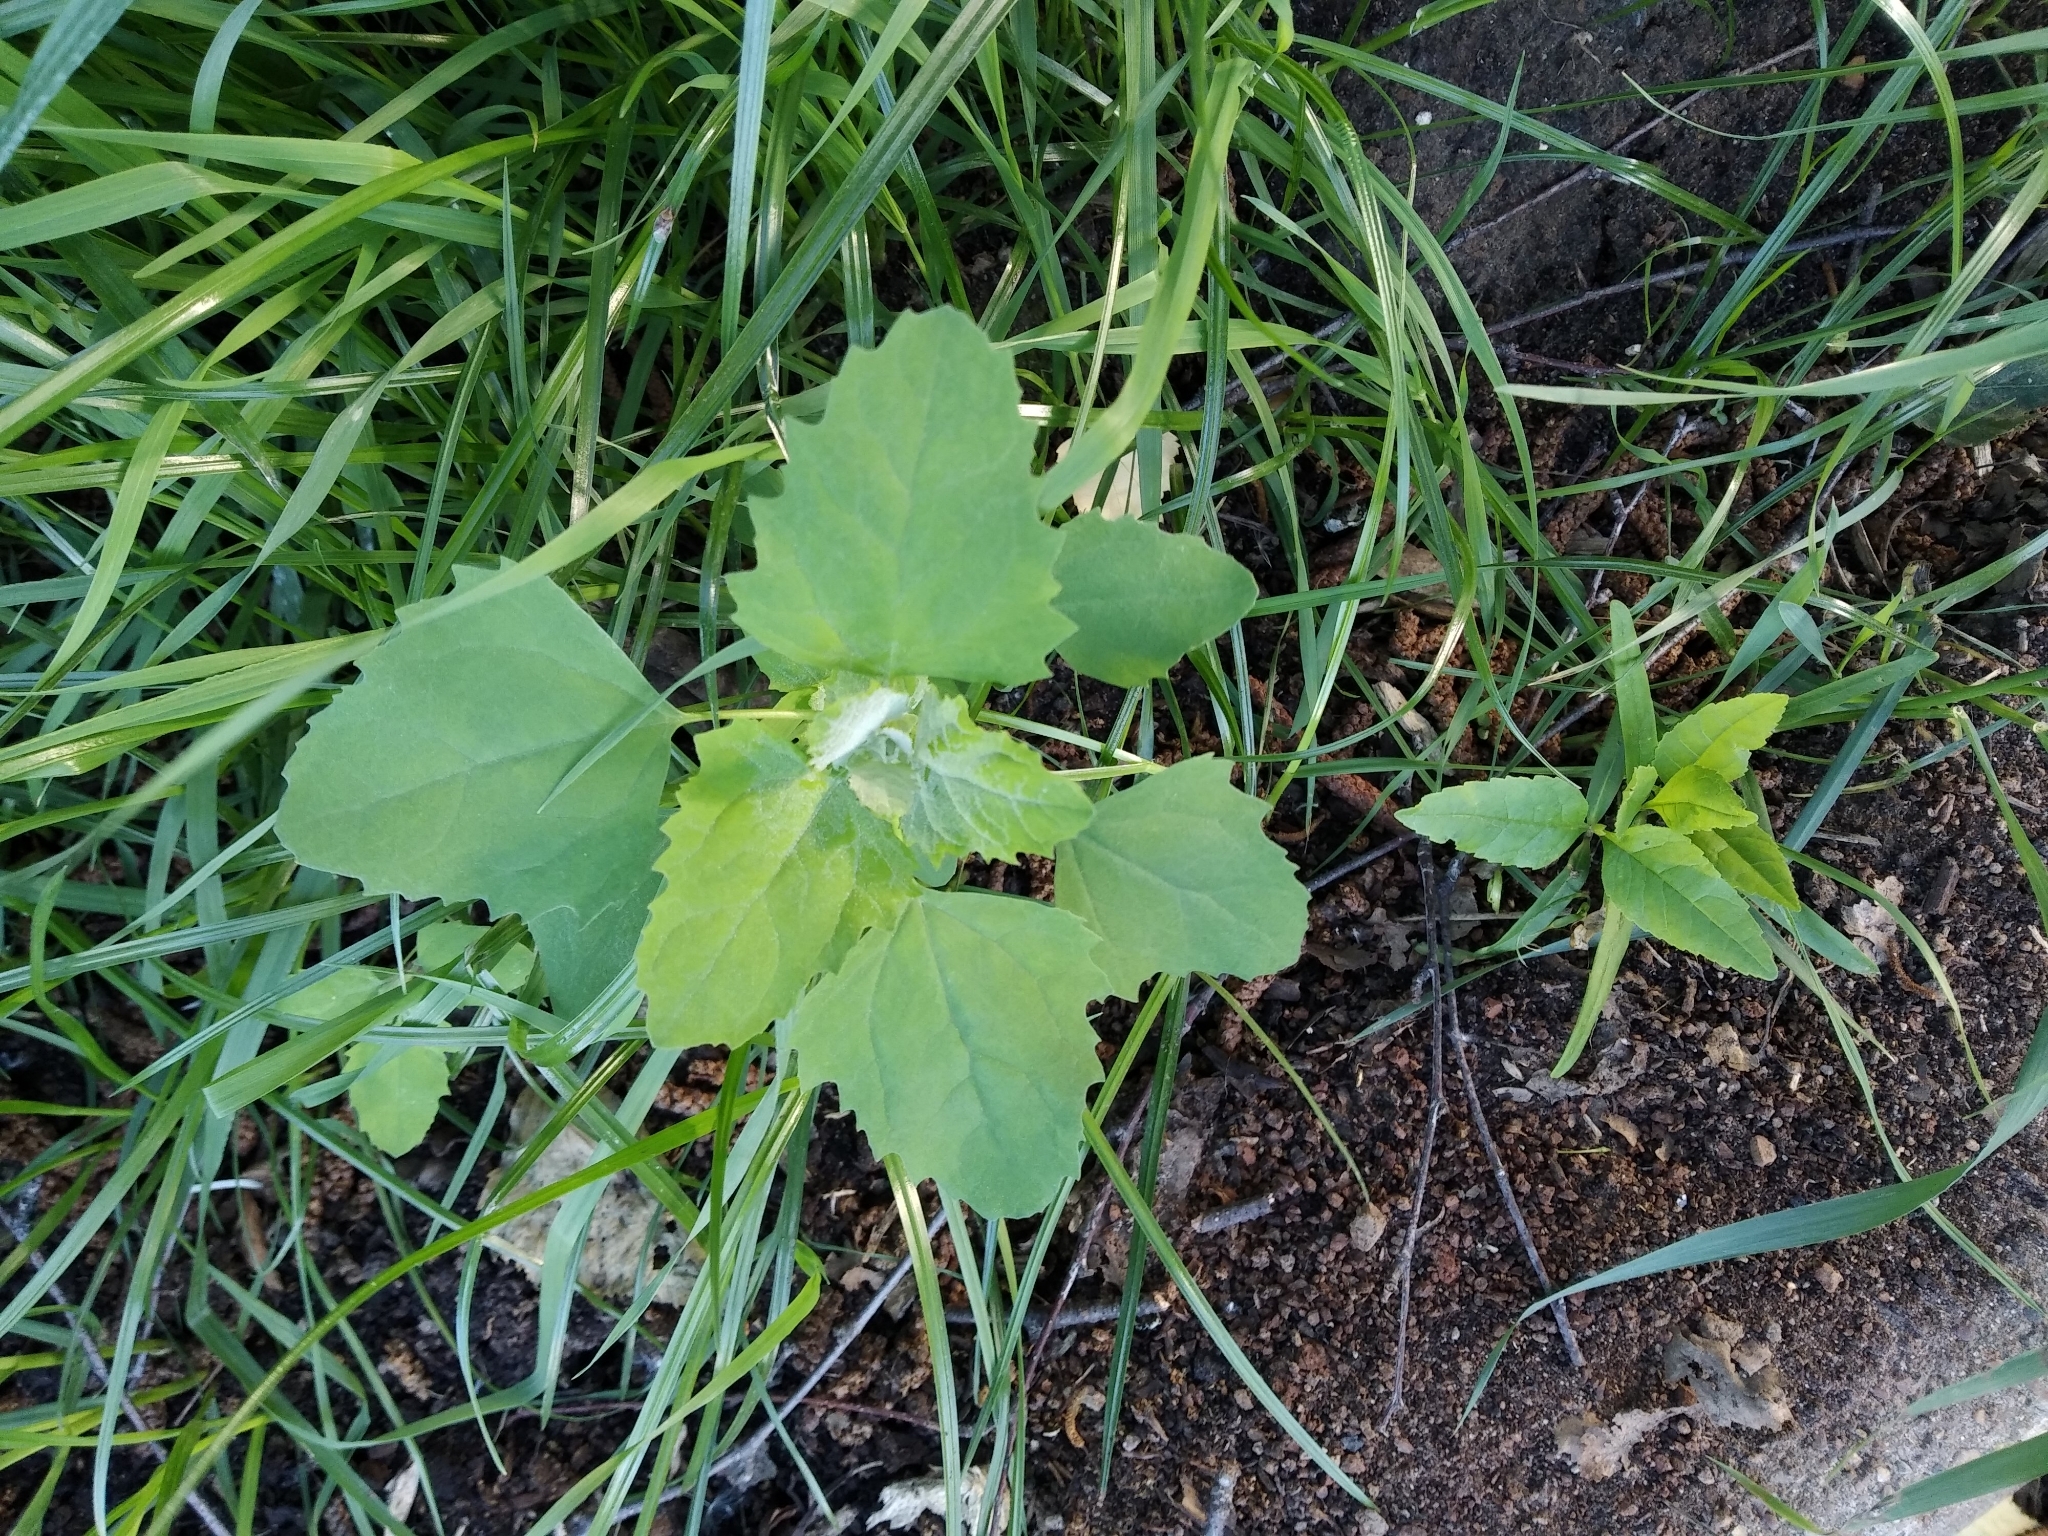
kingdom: Plantae
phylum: Tracheophyta
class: Magnoliopsida
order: Caryophyllales
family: Amaranthaceae
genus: Chenopodium
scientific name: Chenopodium album
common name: Fat-hen
